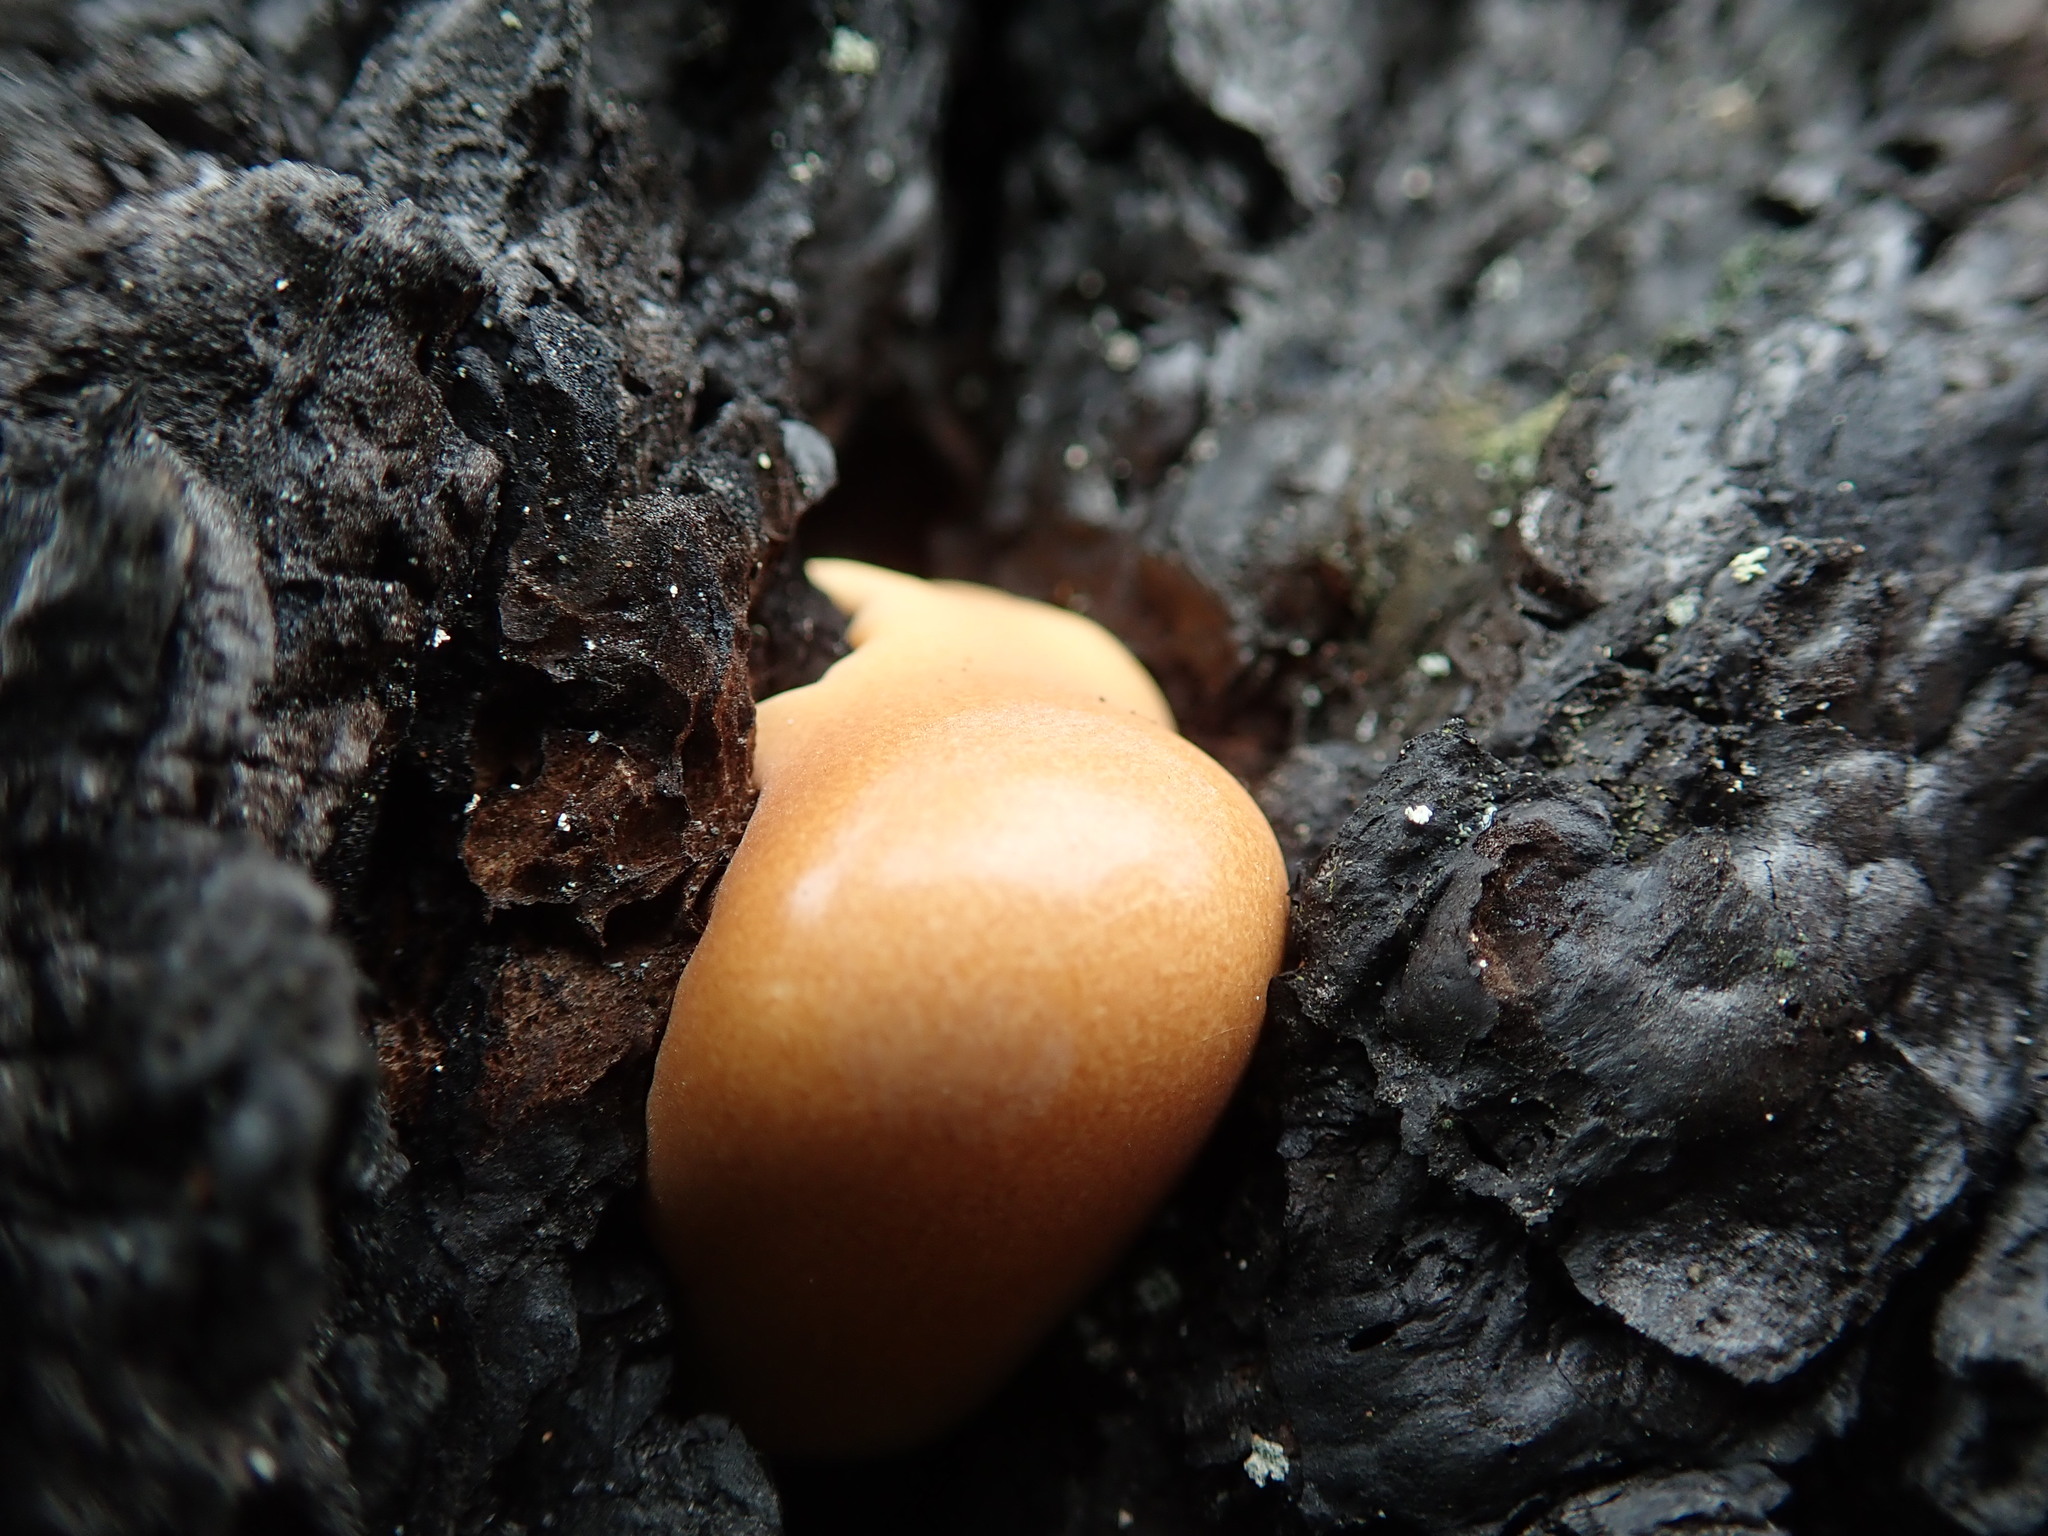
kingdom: Fungi
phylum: Basidiomycota
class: Agaricomycetes
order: Polyporales
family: Polyporaceae
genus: Cryptoporus
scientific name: Cryptoporus volvatus
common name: Veiled polypore
